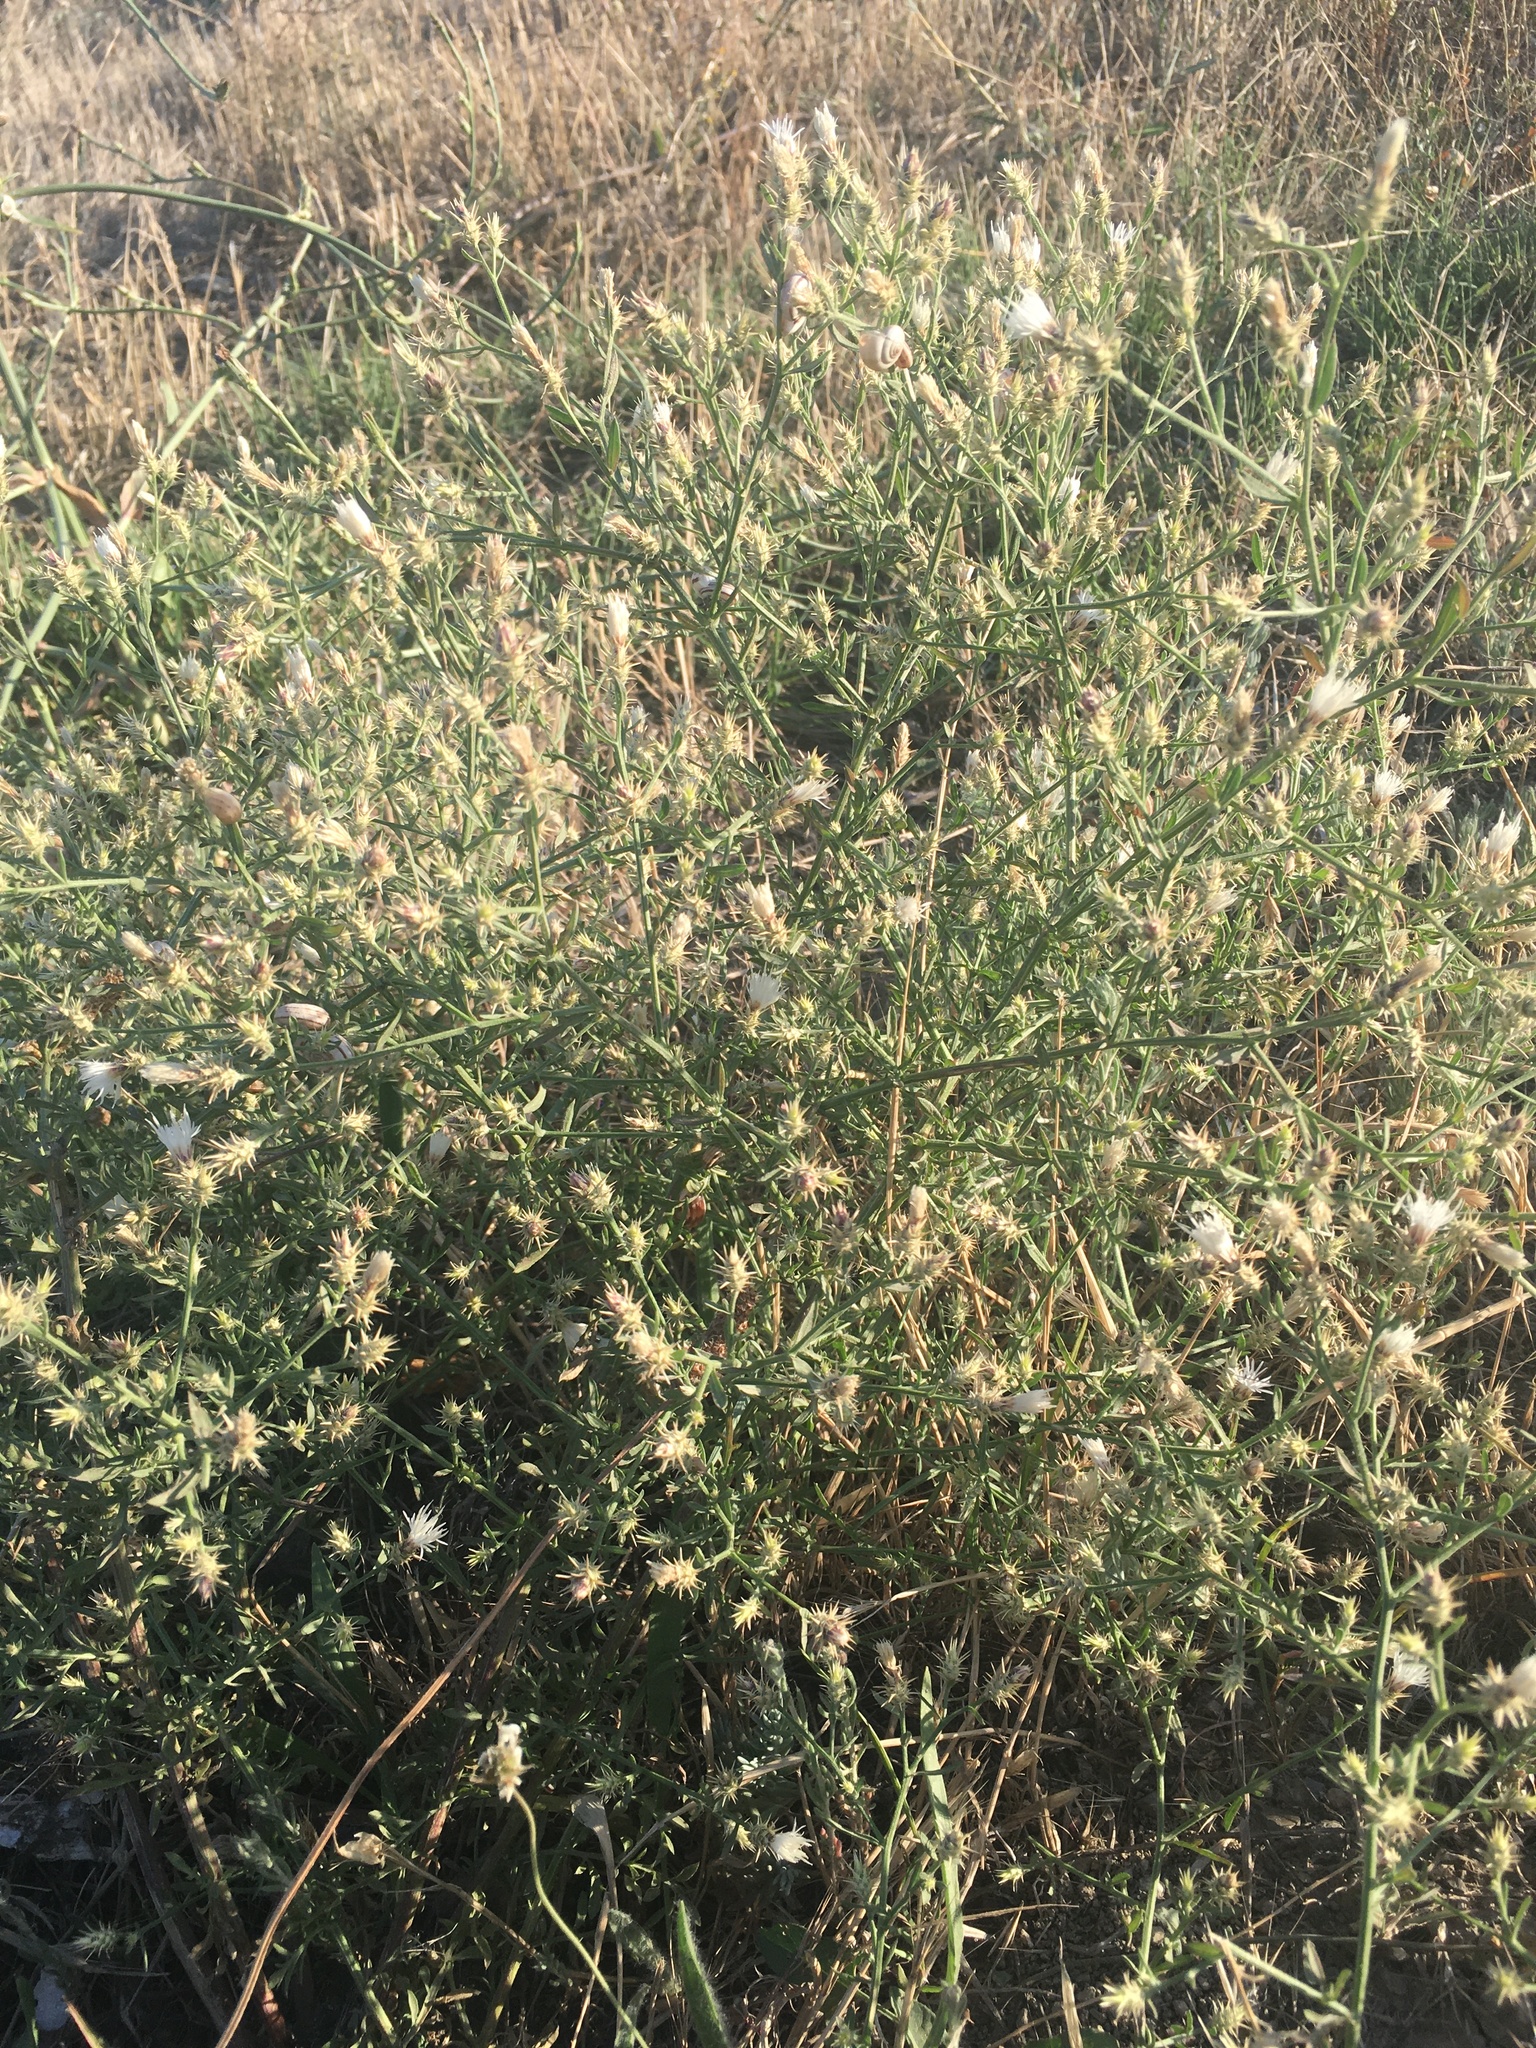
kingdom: Plantae
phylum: Tracheophyta
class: Magnoliopsida
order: Asterales
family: Asteraceae
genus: Centaurea
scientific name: Centaurea diffusa
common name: Diffuse knapweed
